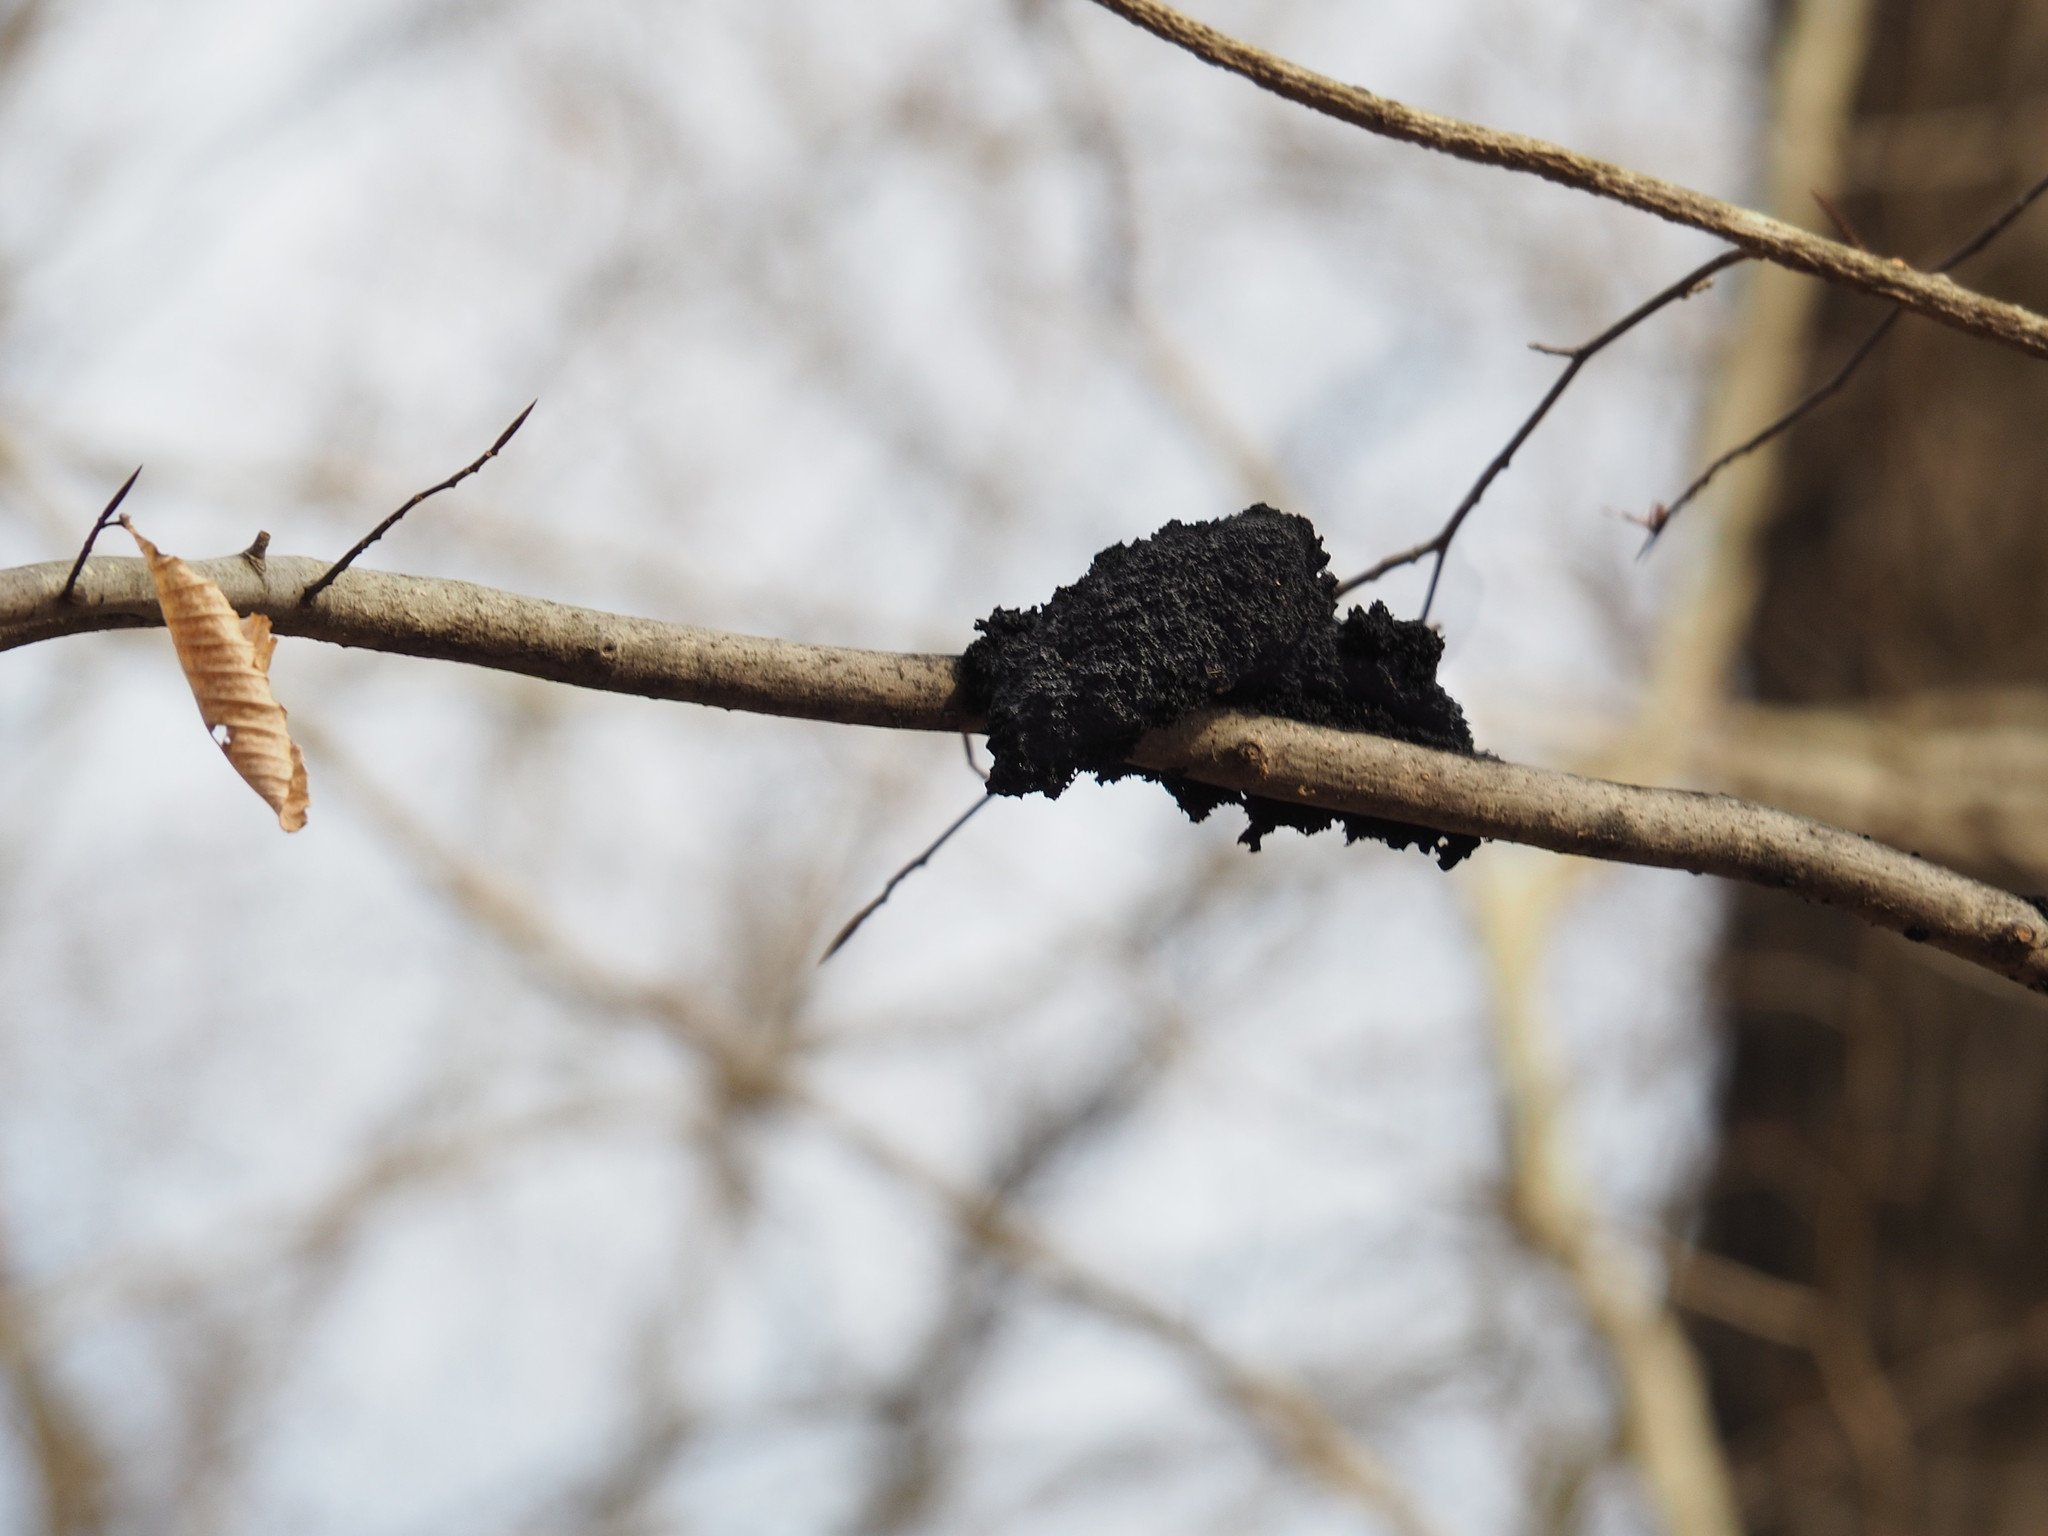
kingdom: Fungi
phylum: Ascomycota
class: Dothideomycetes
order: Capnodiales
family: Capnodiaceae
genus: Scorias
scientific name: Scorias spongiosa
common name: Black sooty mold
